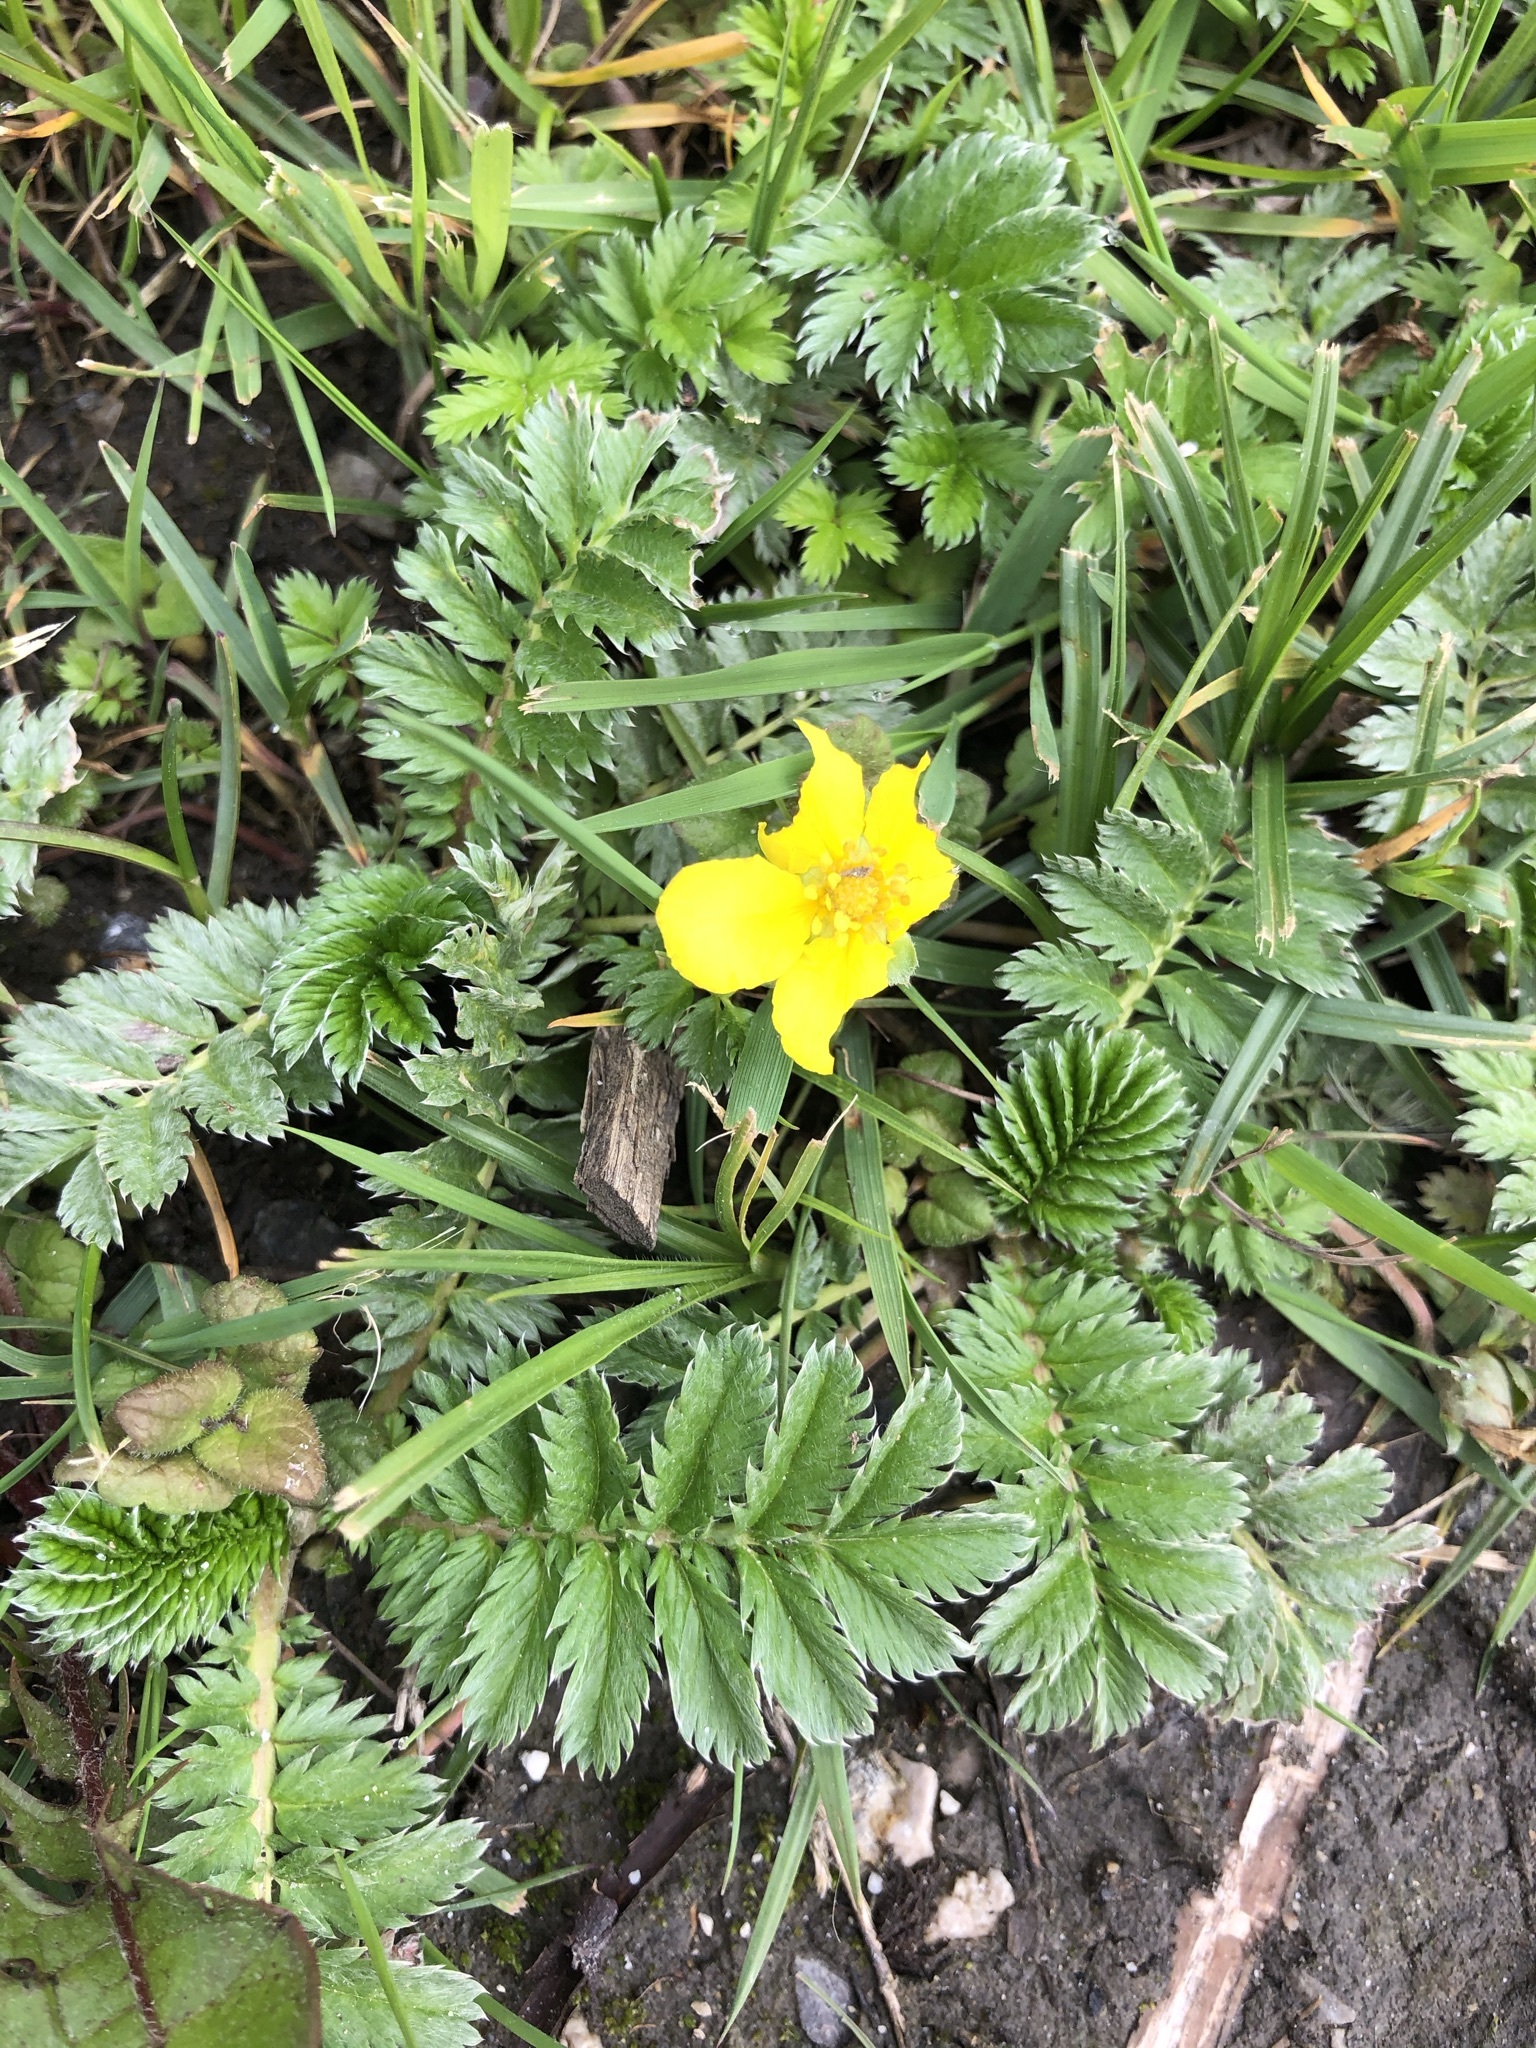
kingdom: Plantae
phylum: Tracheophyta
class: Magnoliopsida
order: Rosales
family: Rosaceae
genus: Argentina
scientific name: Argentina anserina
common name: Common silverweed
